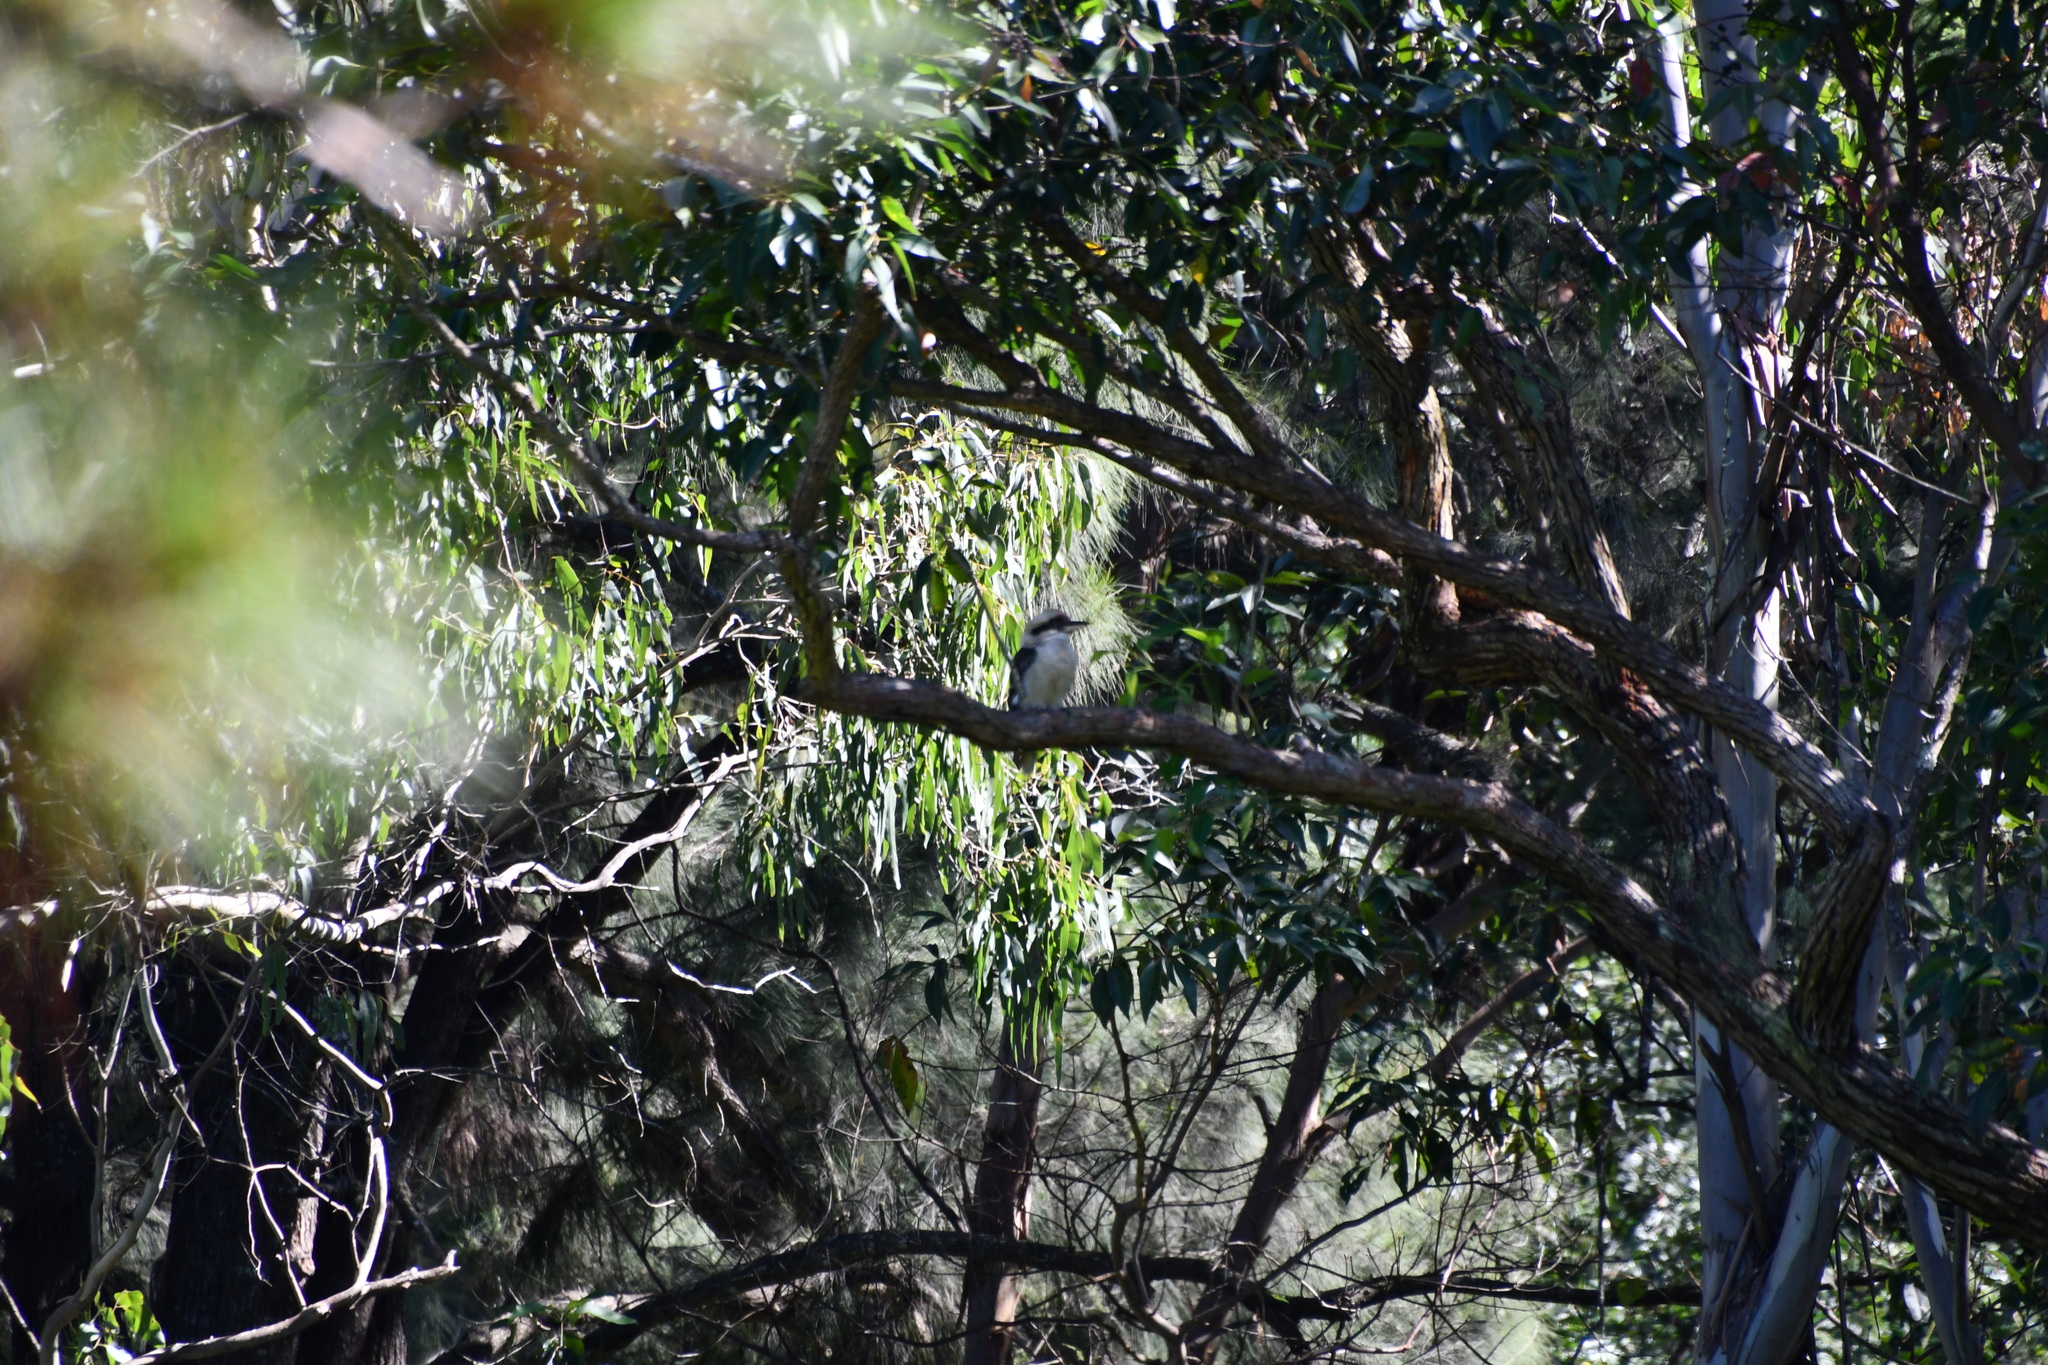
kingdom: Animalia
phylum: Chordata
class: Aves
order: Coraciiformes
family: Alcedinidae
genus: Dacelo
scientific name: Dacelo novaeguineae
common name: Laughing kookaburra
